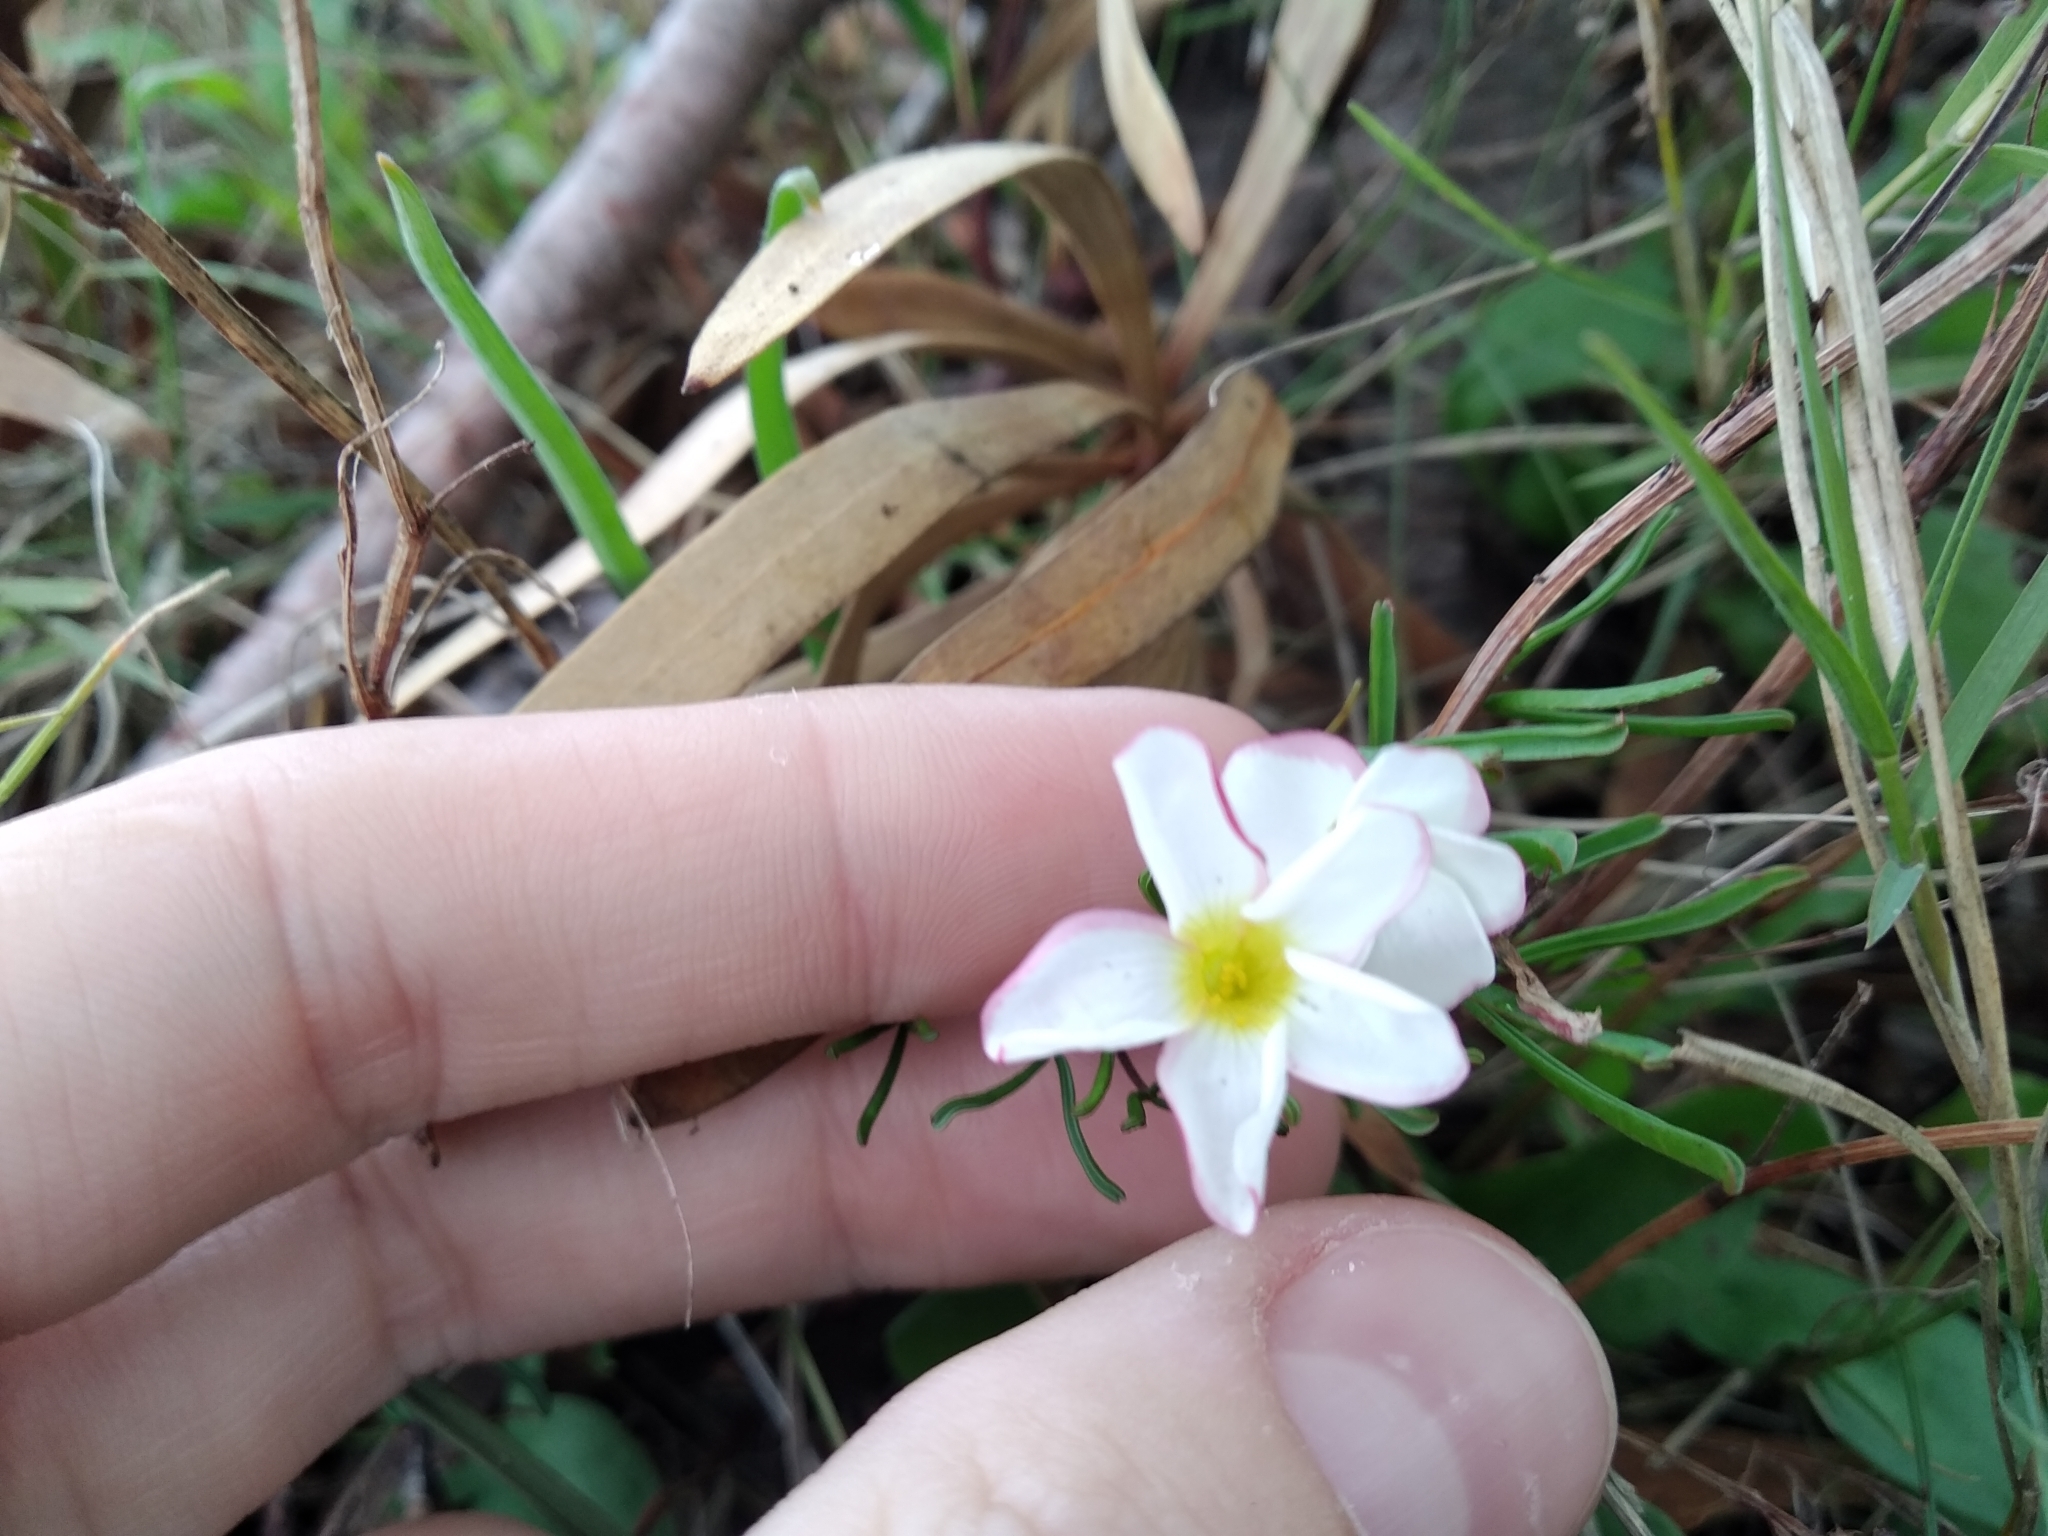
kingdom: Plantae
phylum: Tracheophyta
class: Magnoliopsida
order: Oxalidales
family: Oxalidaceae
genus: Oxalis
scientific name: Oxalis versicolor
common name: Peppermint rock oxalis
